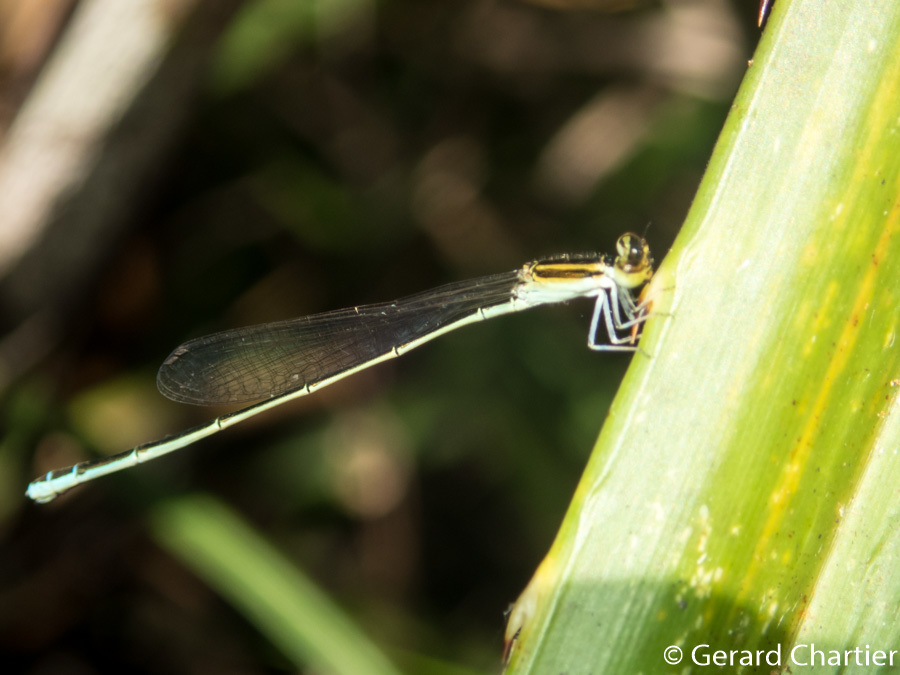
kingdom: Animalia
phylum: Arthropoda
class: Insecta
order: Odonata
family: Coenagrionidae
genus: Aciagrion
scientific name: Aciagrion borneense
